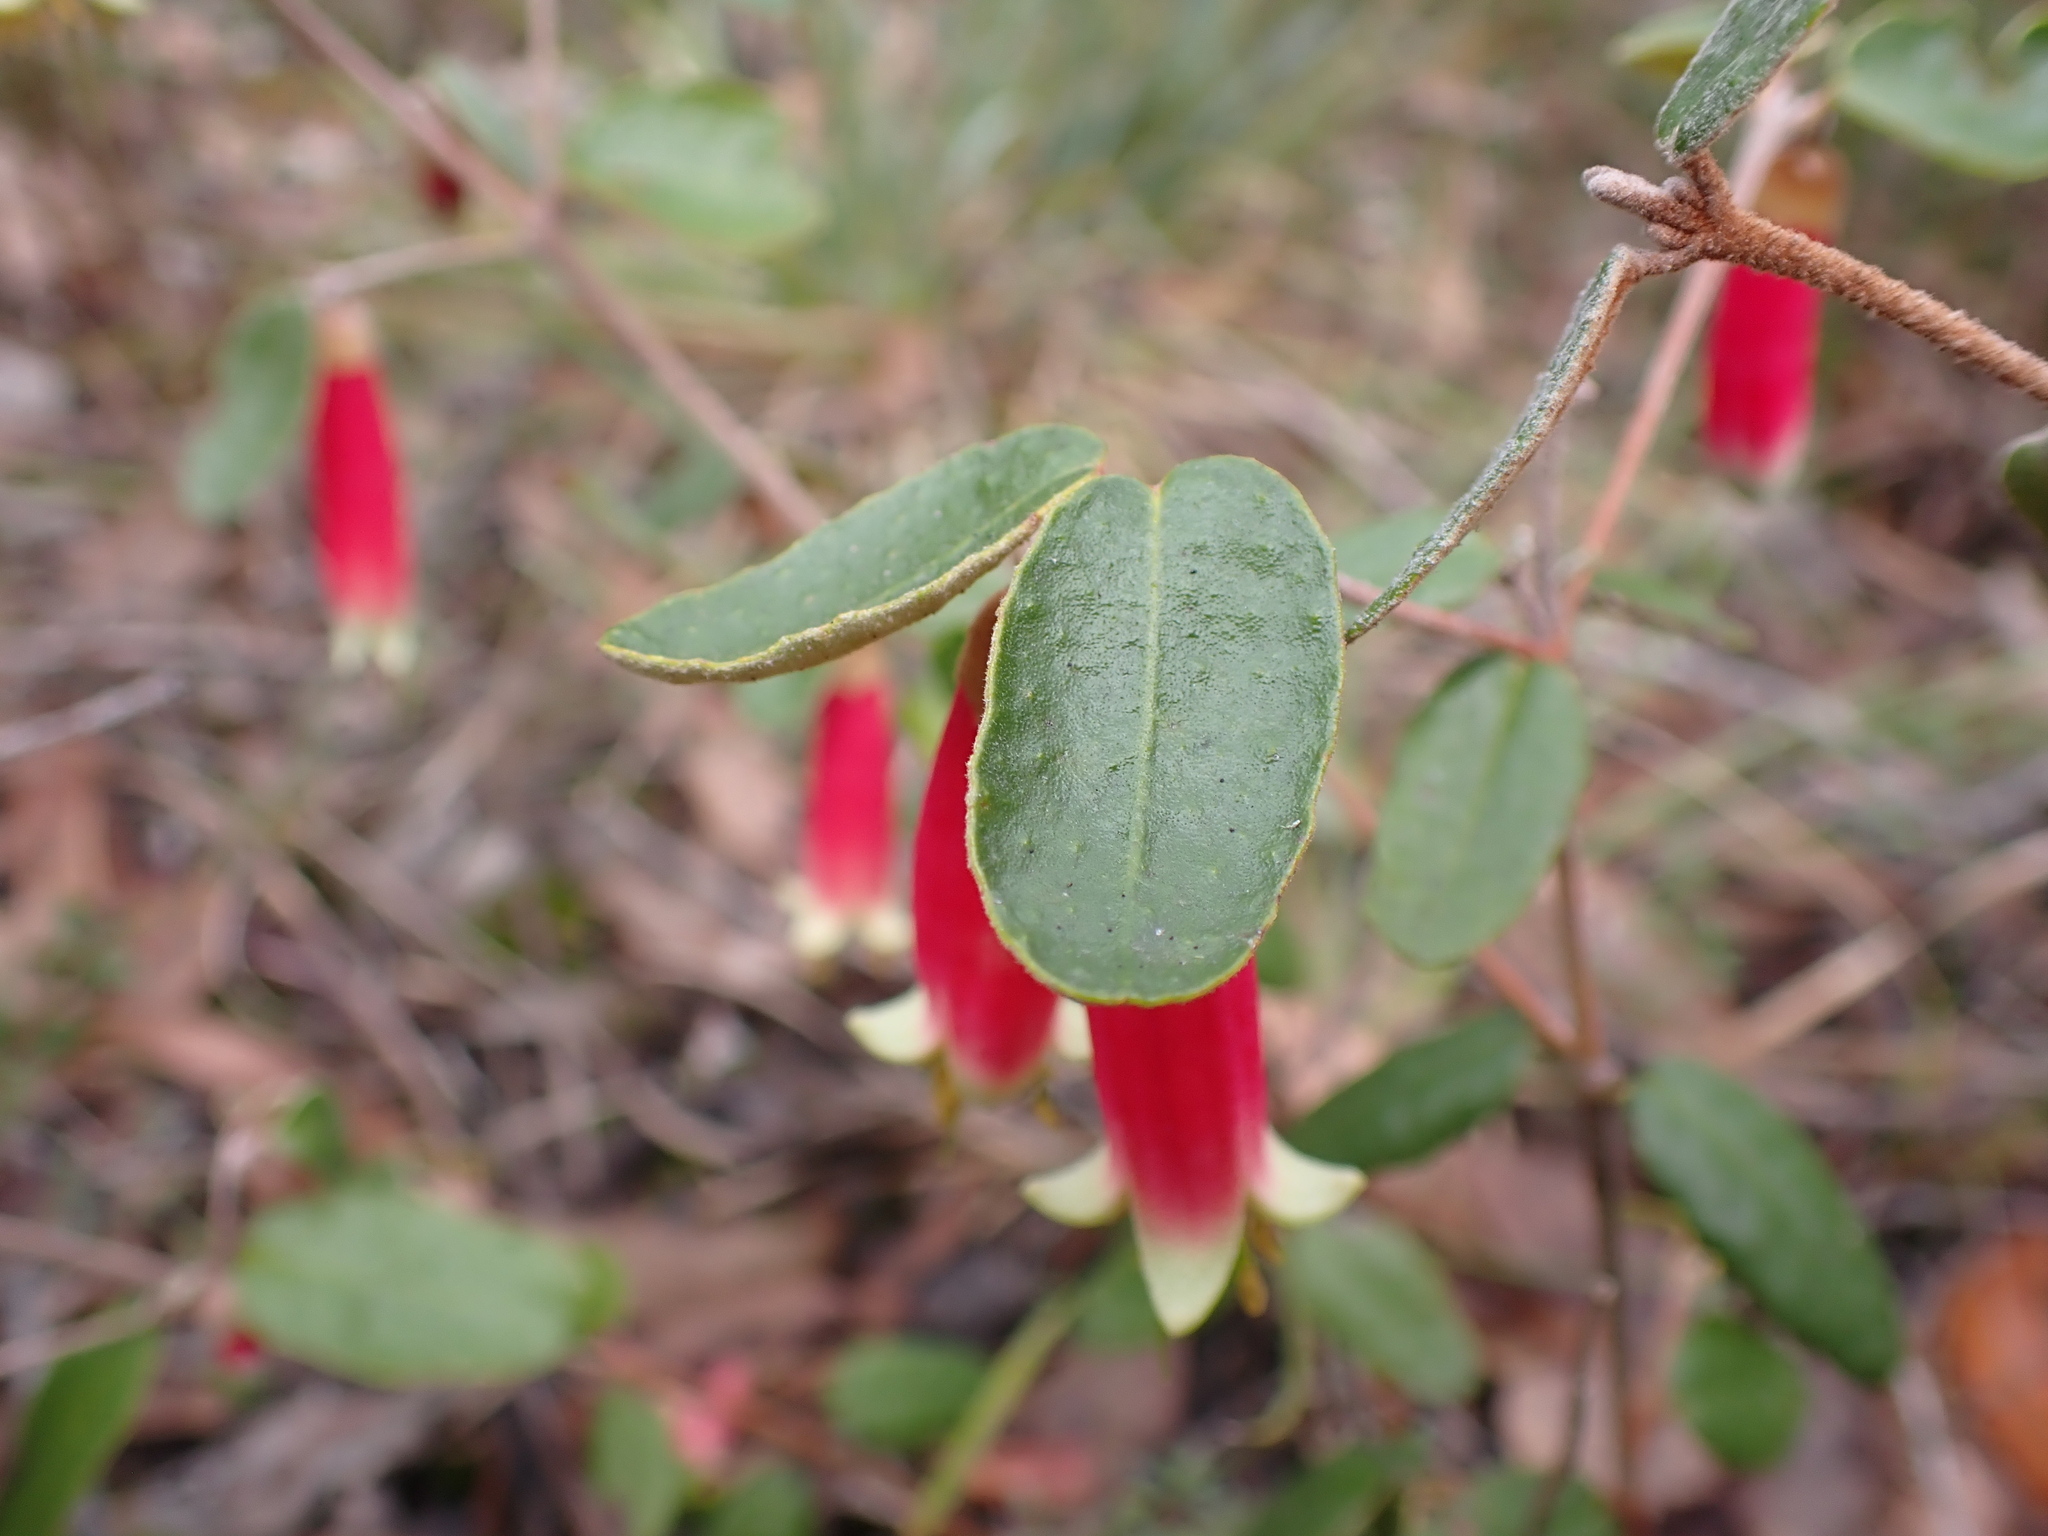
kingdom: Plantae
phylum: Tracheophyta
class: Magnoliopsida
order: Sapindales
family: Rutaceae
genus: Correa
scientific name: Correa reflexa
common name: Common correa
